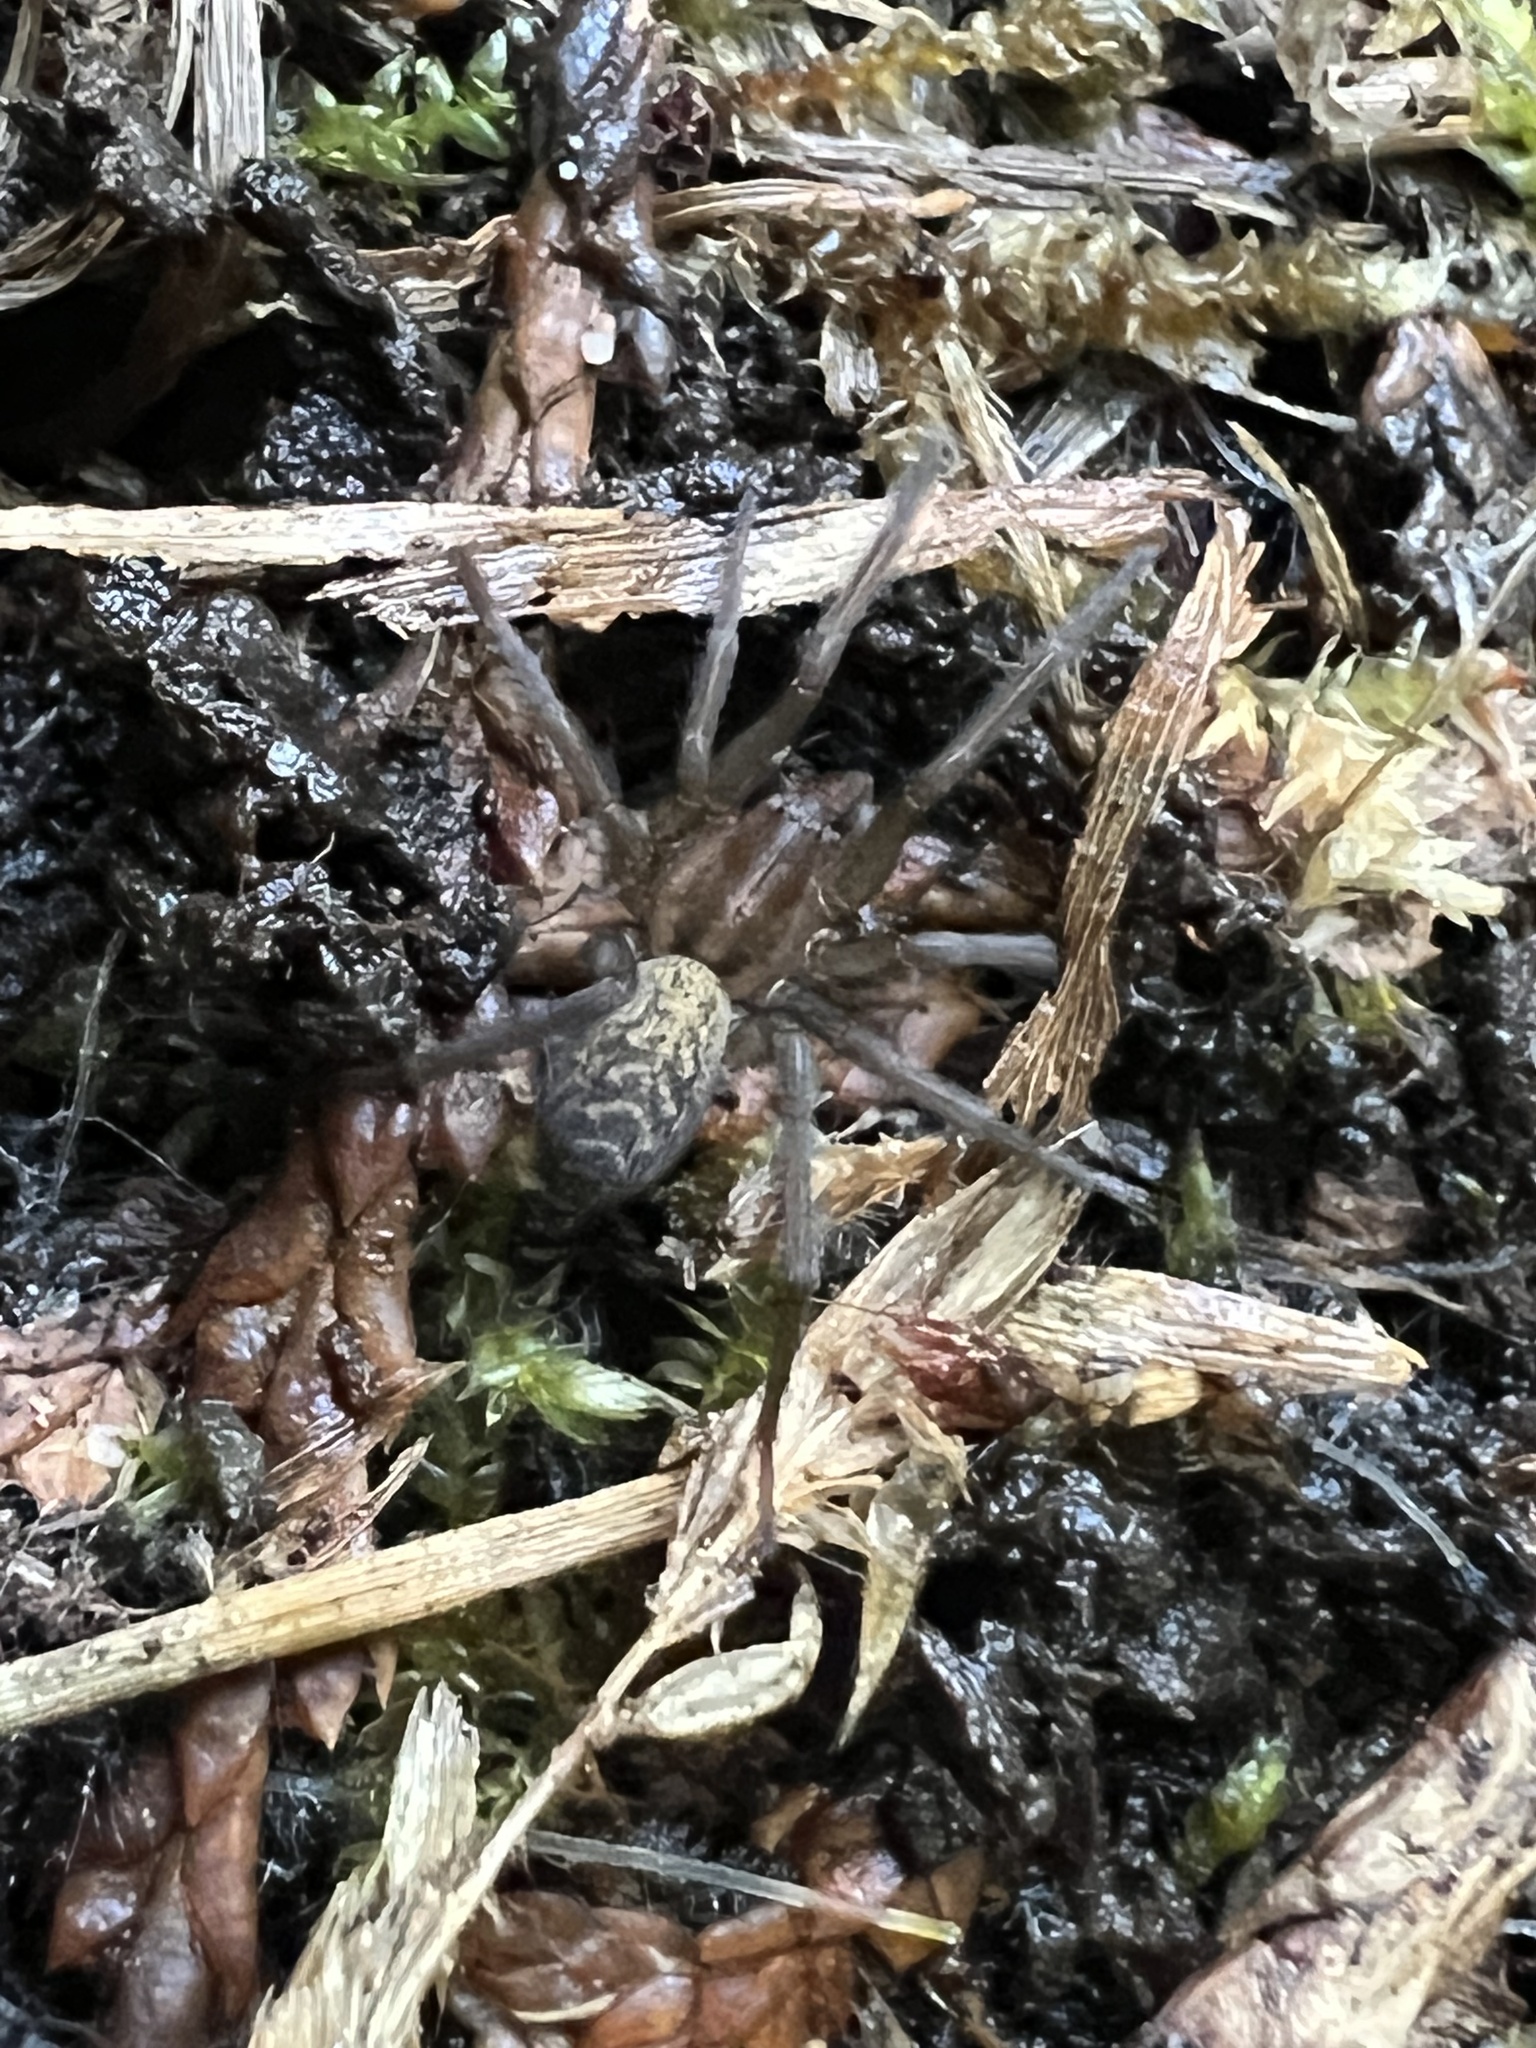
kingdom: Animalia
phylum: Arthropoda
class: Arachnida
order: Araneae
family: Agelenidae
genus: Eratigena
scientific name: Eratigena agrestis
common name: Hobo spider
